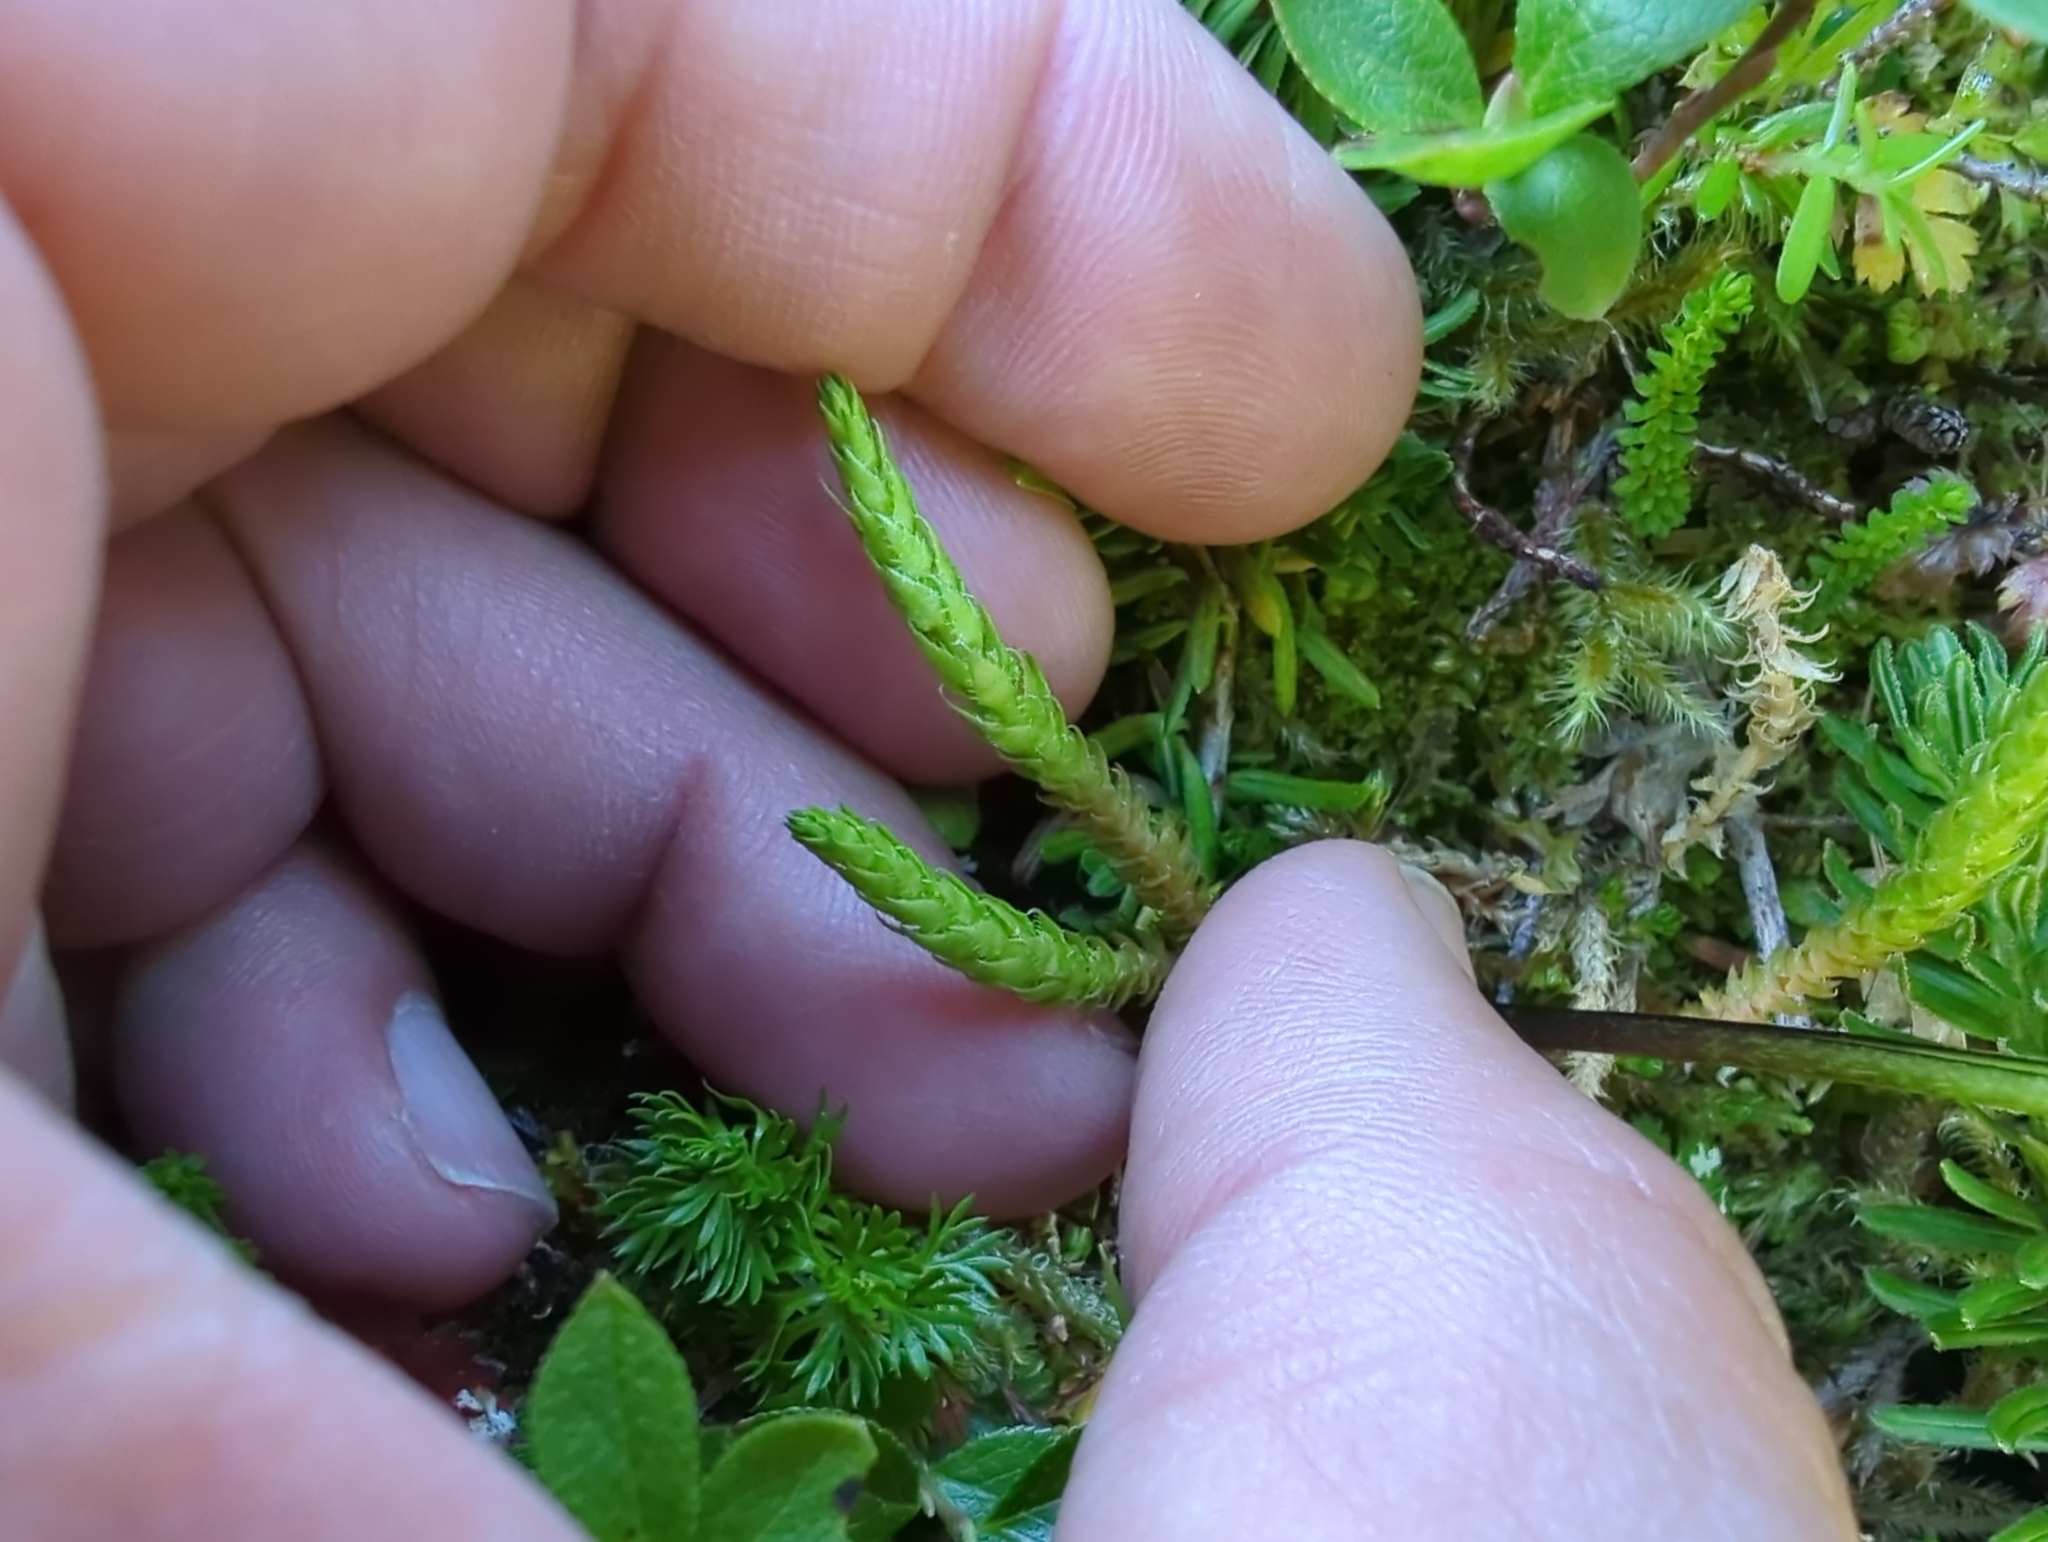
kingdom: Plantae
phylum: Tracheophyta
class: Lycopodiopsida
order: Selaginellales
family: Selaginellaceae
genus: Selaginella
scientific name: Selaginella selaginoides
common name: Prickly mountain-moss
